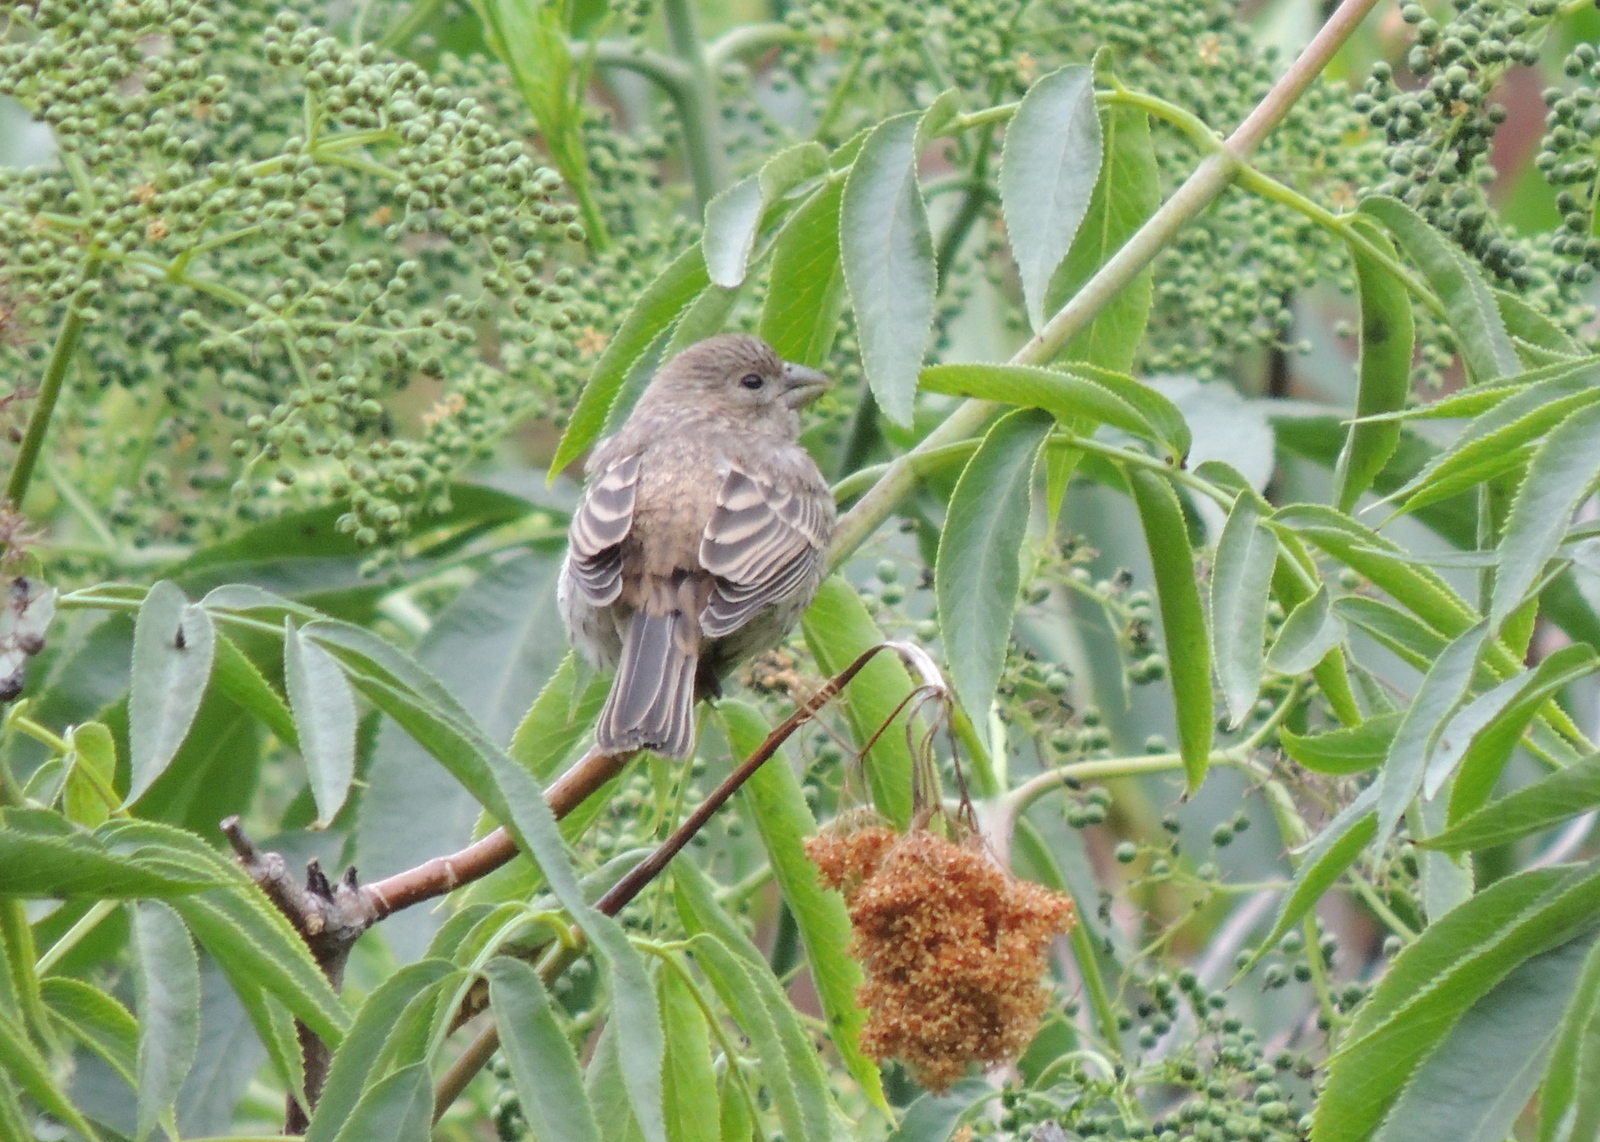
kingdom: Animalia
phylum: Chordata
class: Aves
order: Passeriformes
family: Fringillidae
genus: Haemorhous
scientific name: Haemorhous mexicanus
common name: House finch
